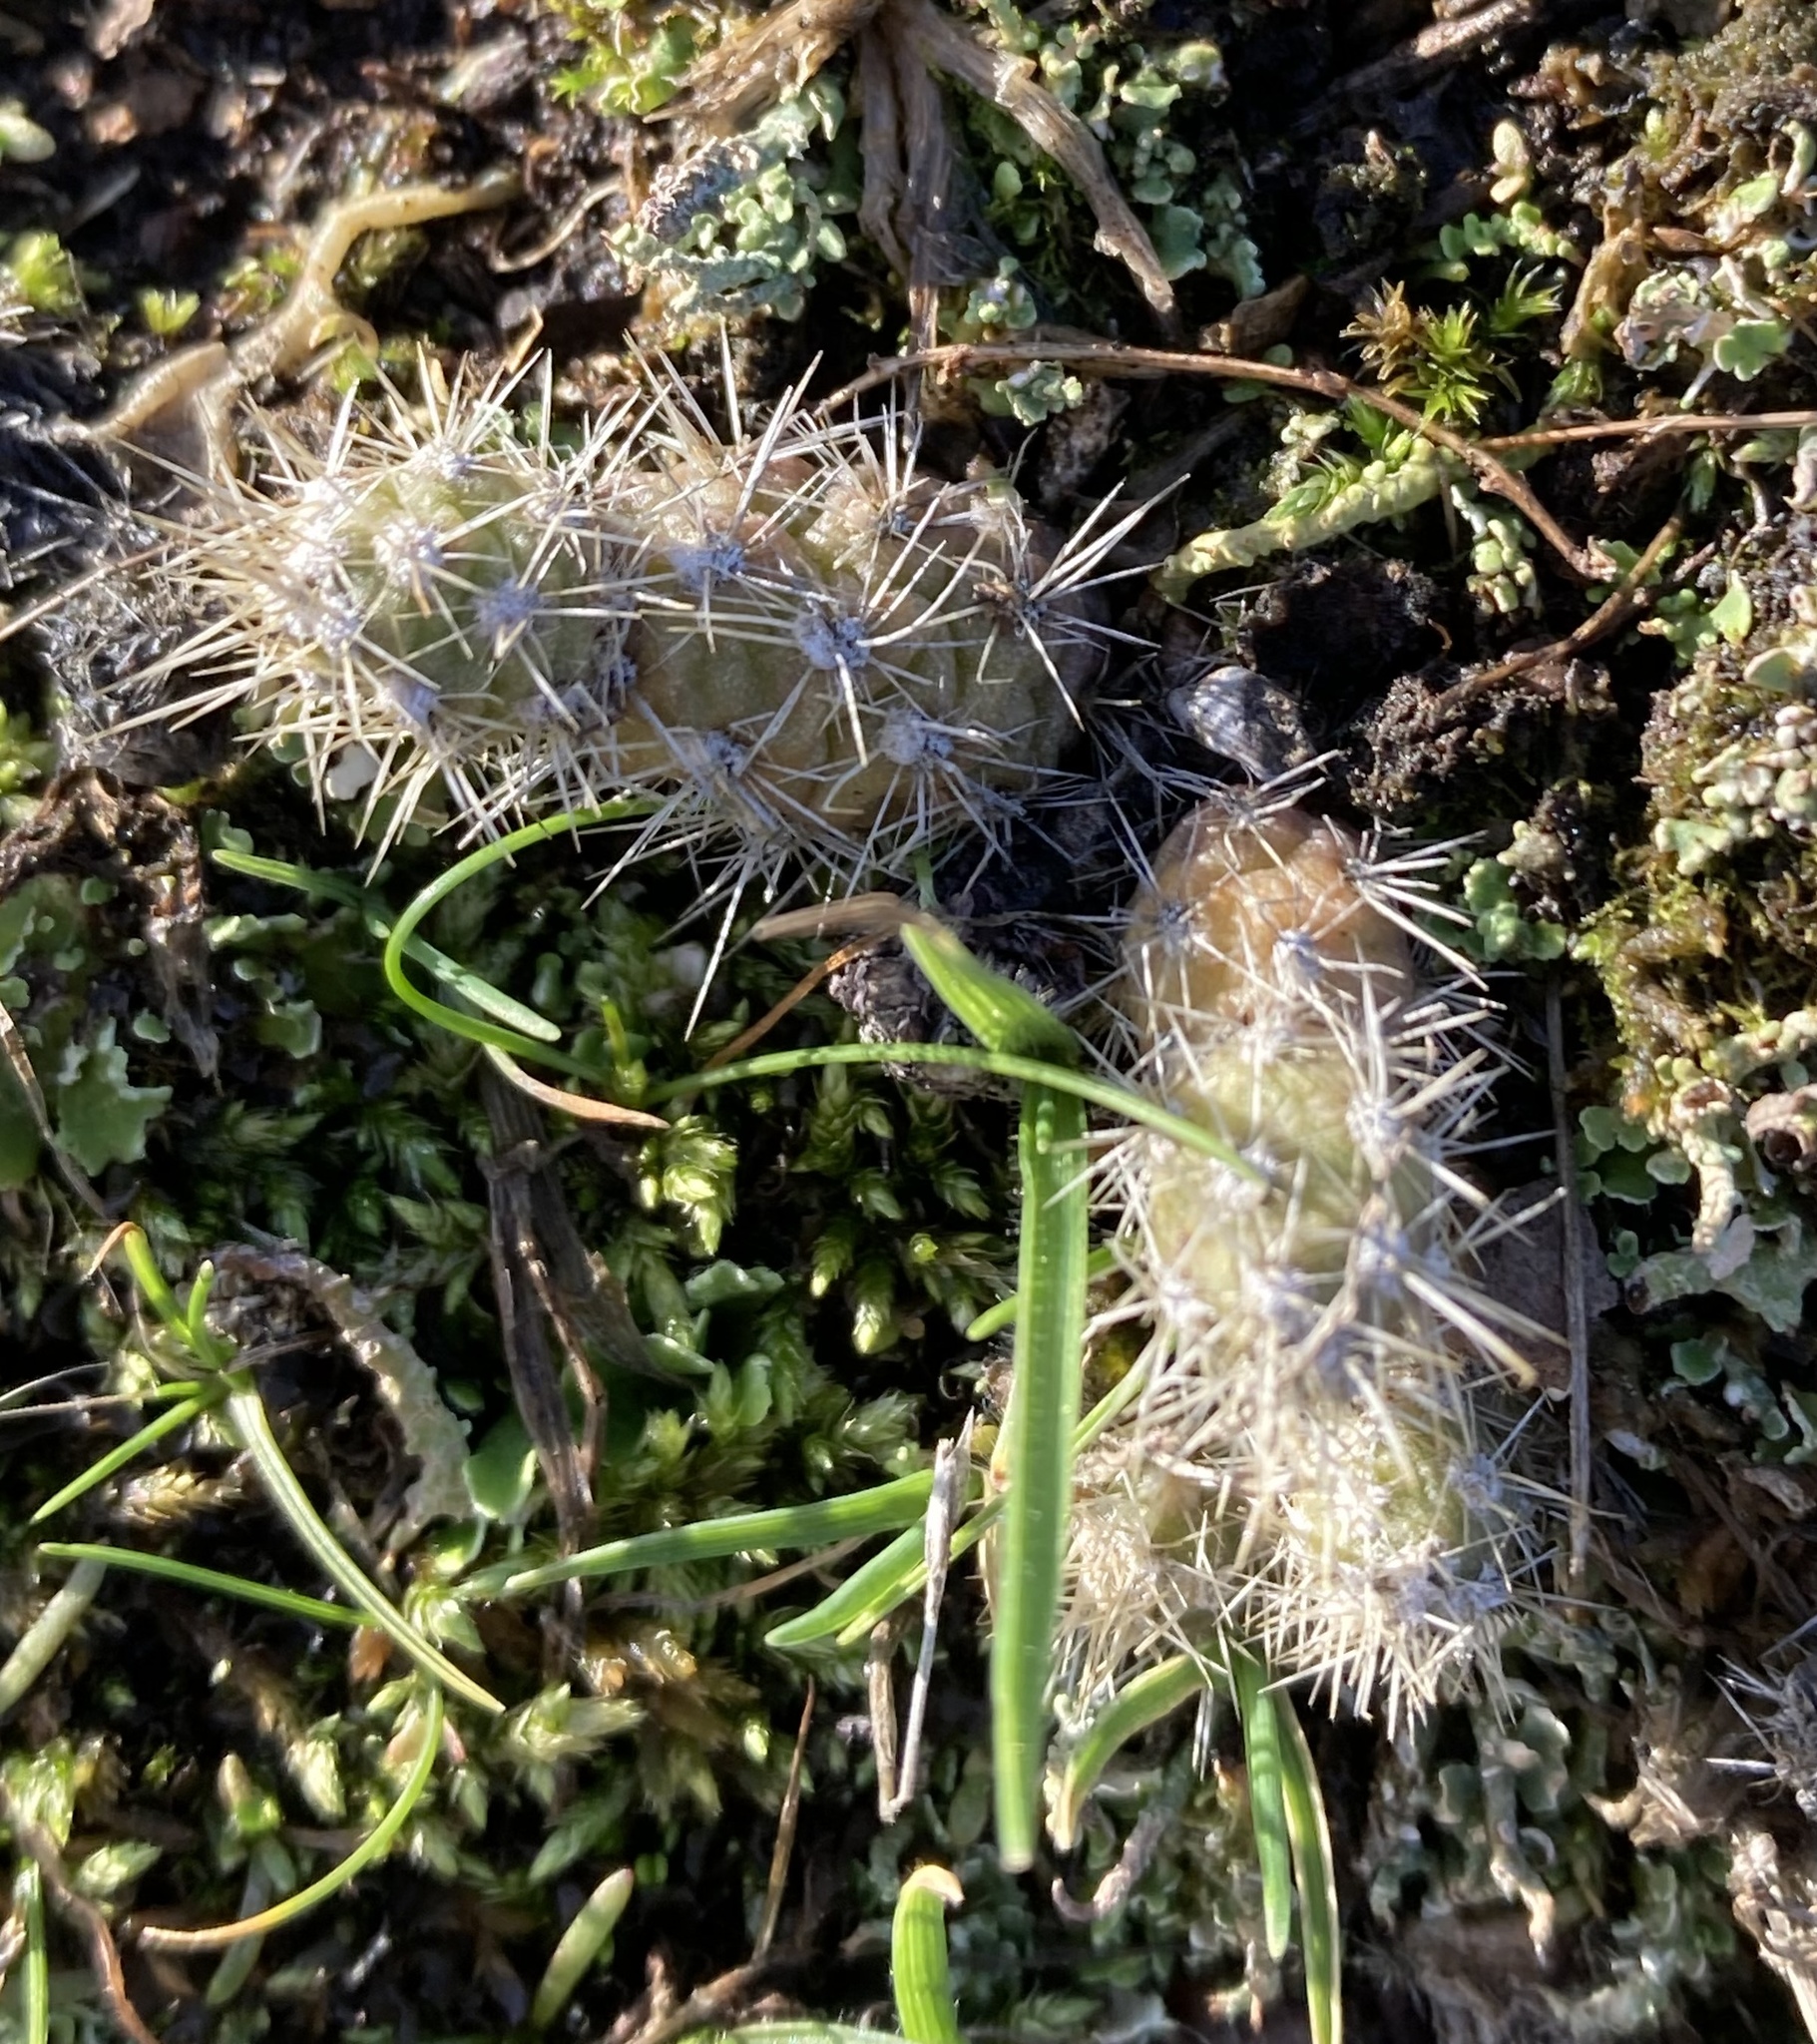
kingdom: Plantae
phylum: Tracheophyta
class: Magnoliopsida
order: Caryophyllales
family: Cactaceae
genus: Opuntia
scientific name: Opuntia fragilis
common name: Brittle cactus
